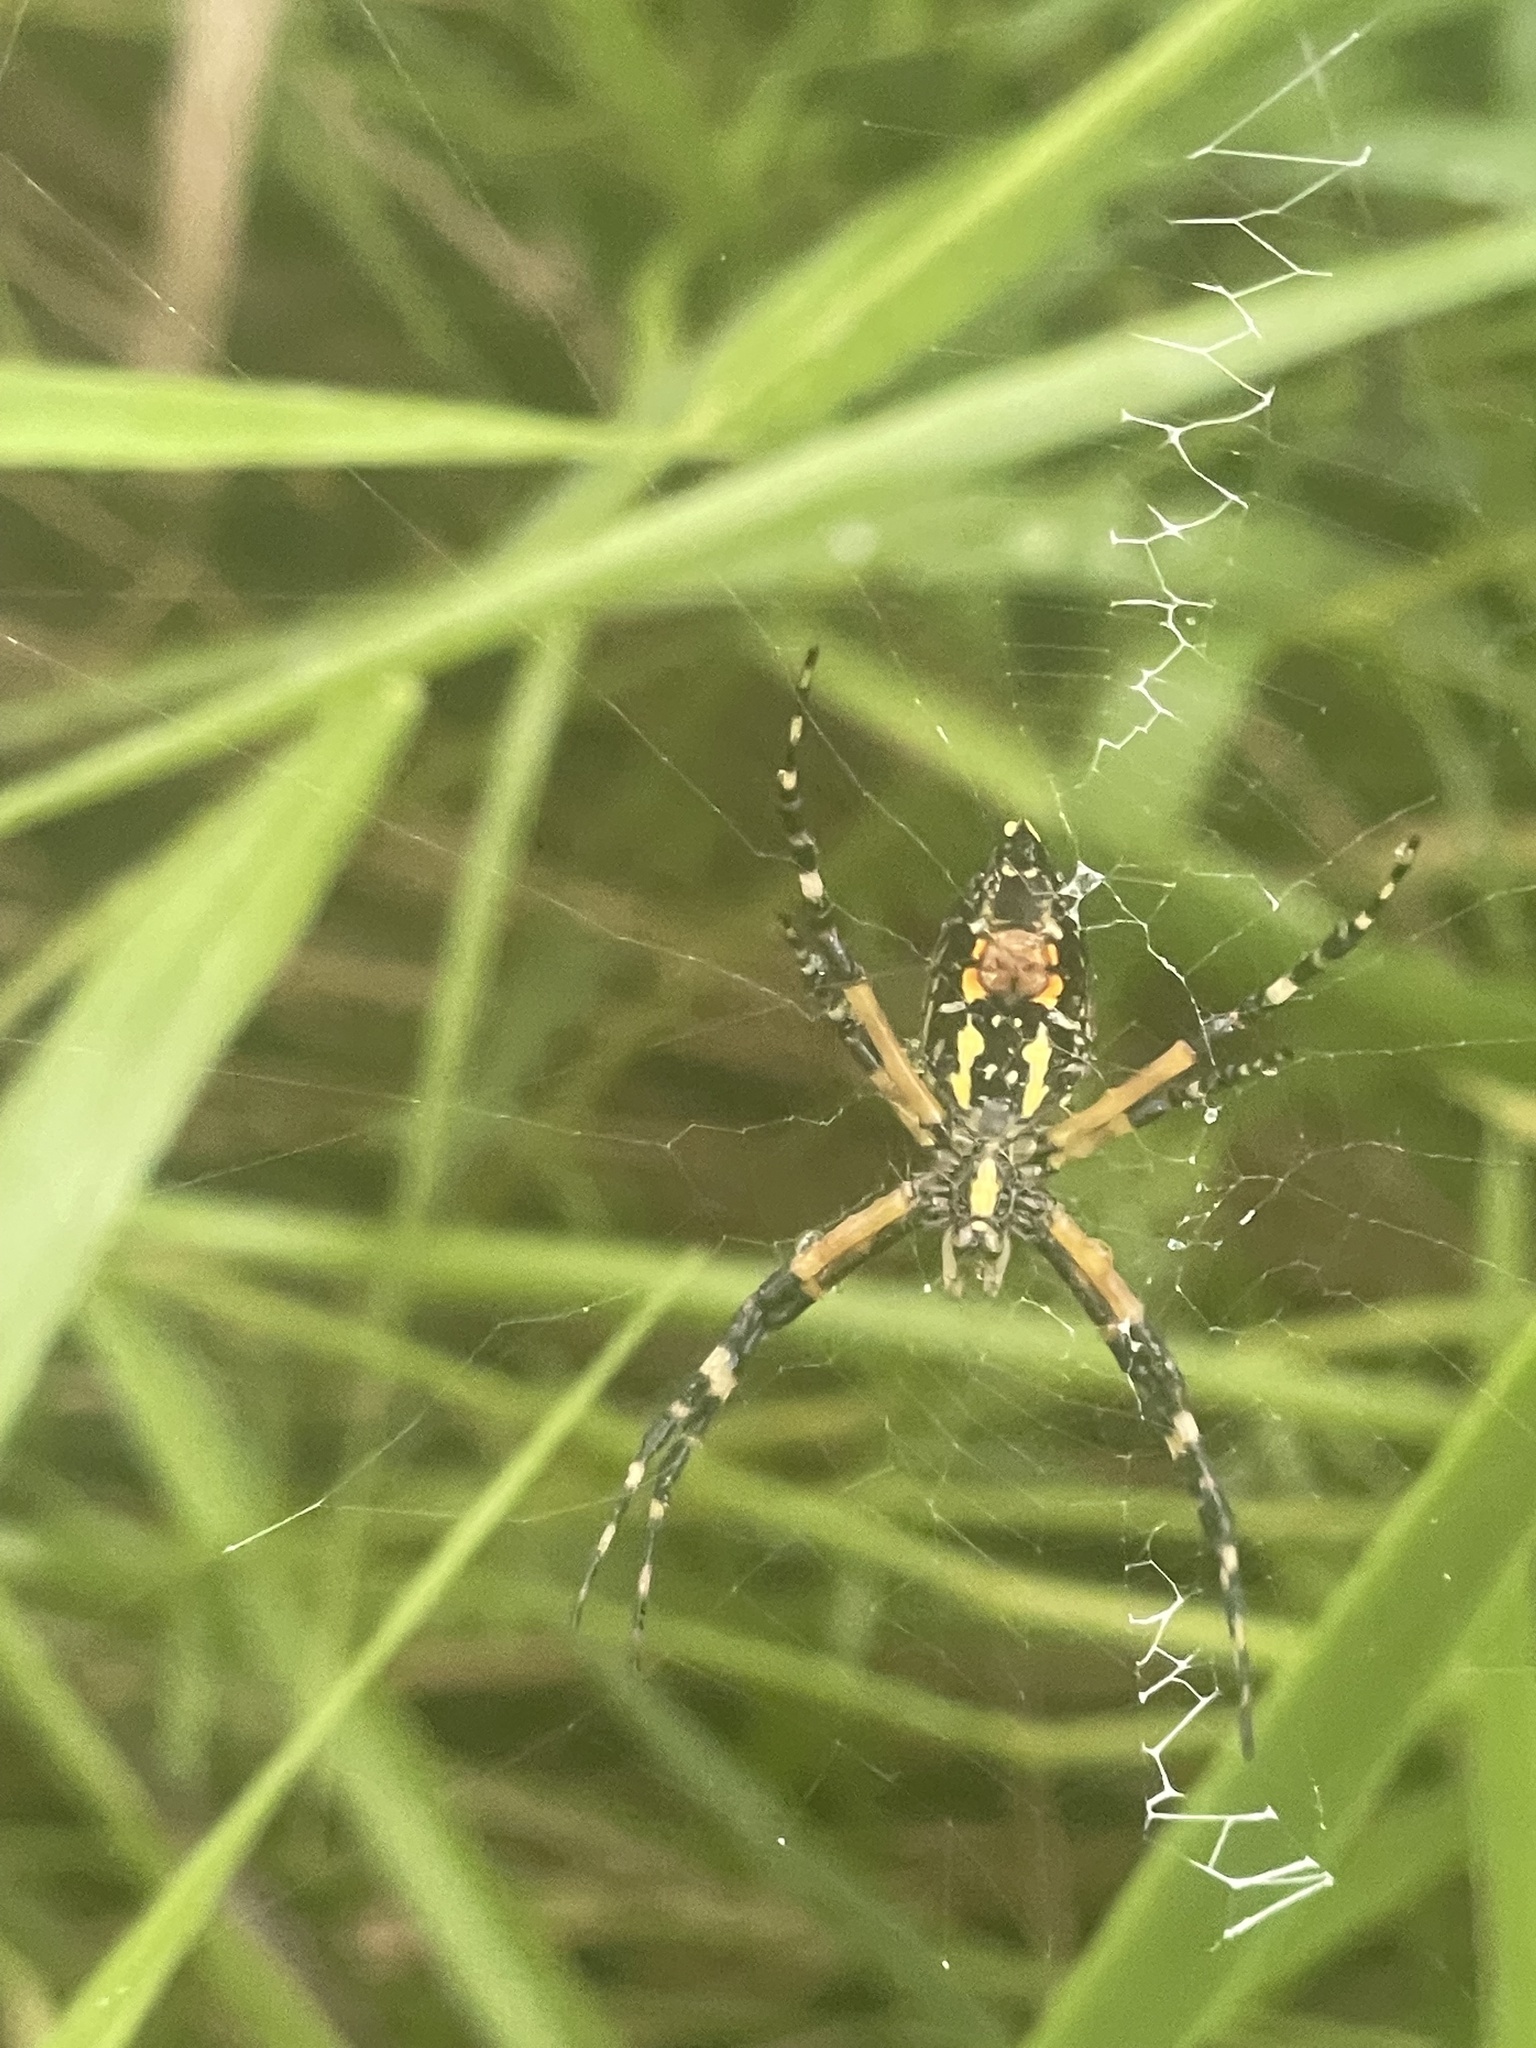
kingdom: Animalia
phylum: Arthropoda
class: Arachnida
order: Araneae
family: Araneidae
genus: Argiope
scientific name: Argiope aurantia
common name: Orb weavers
